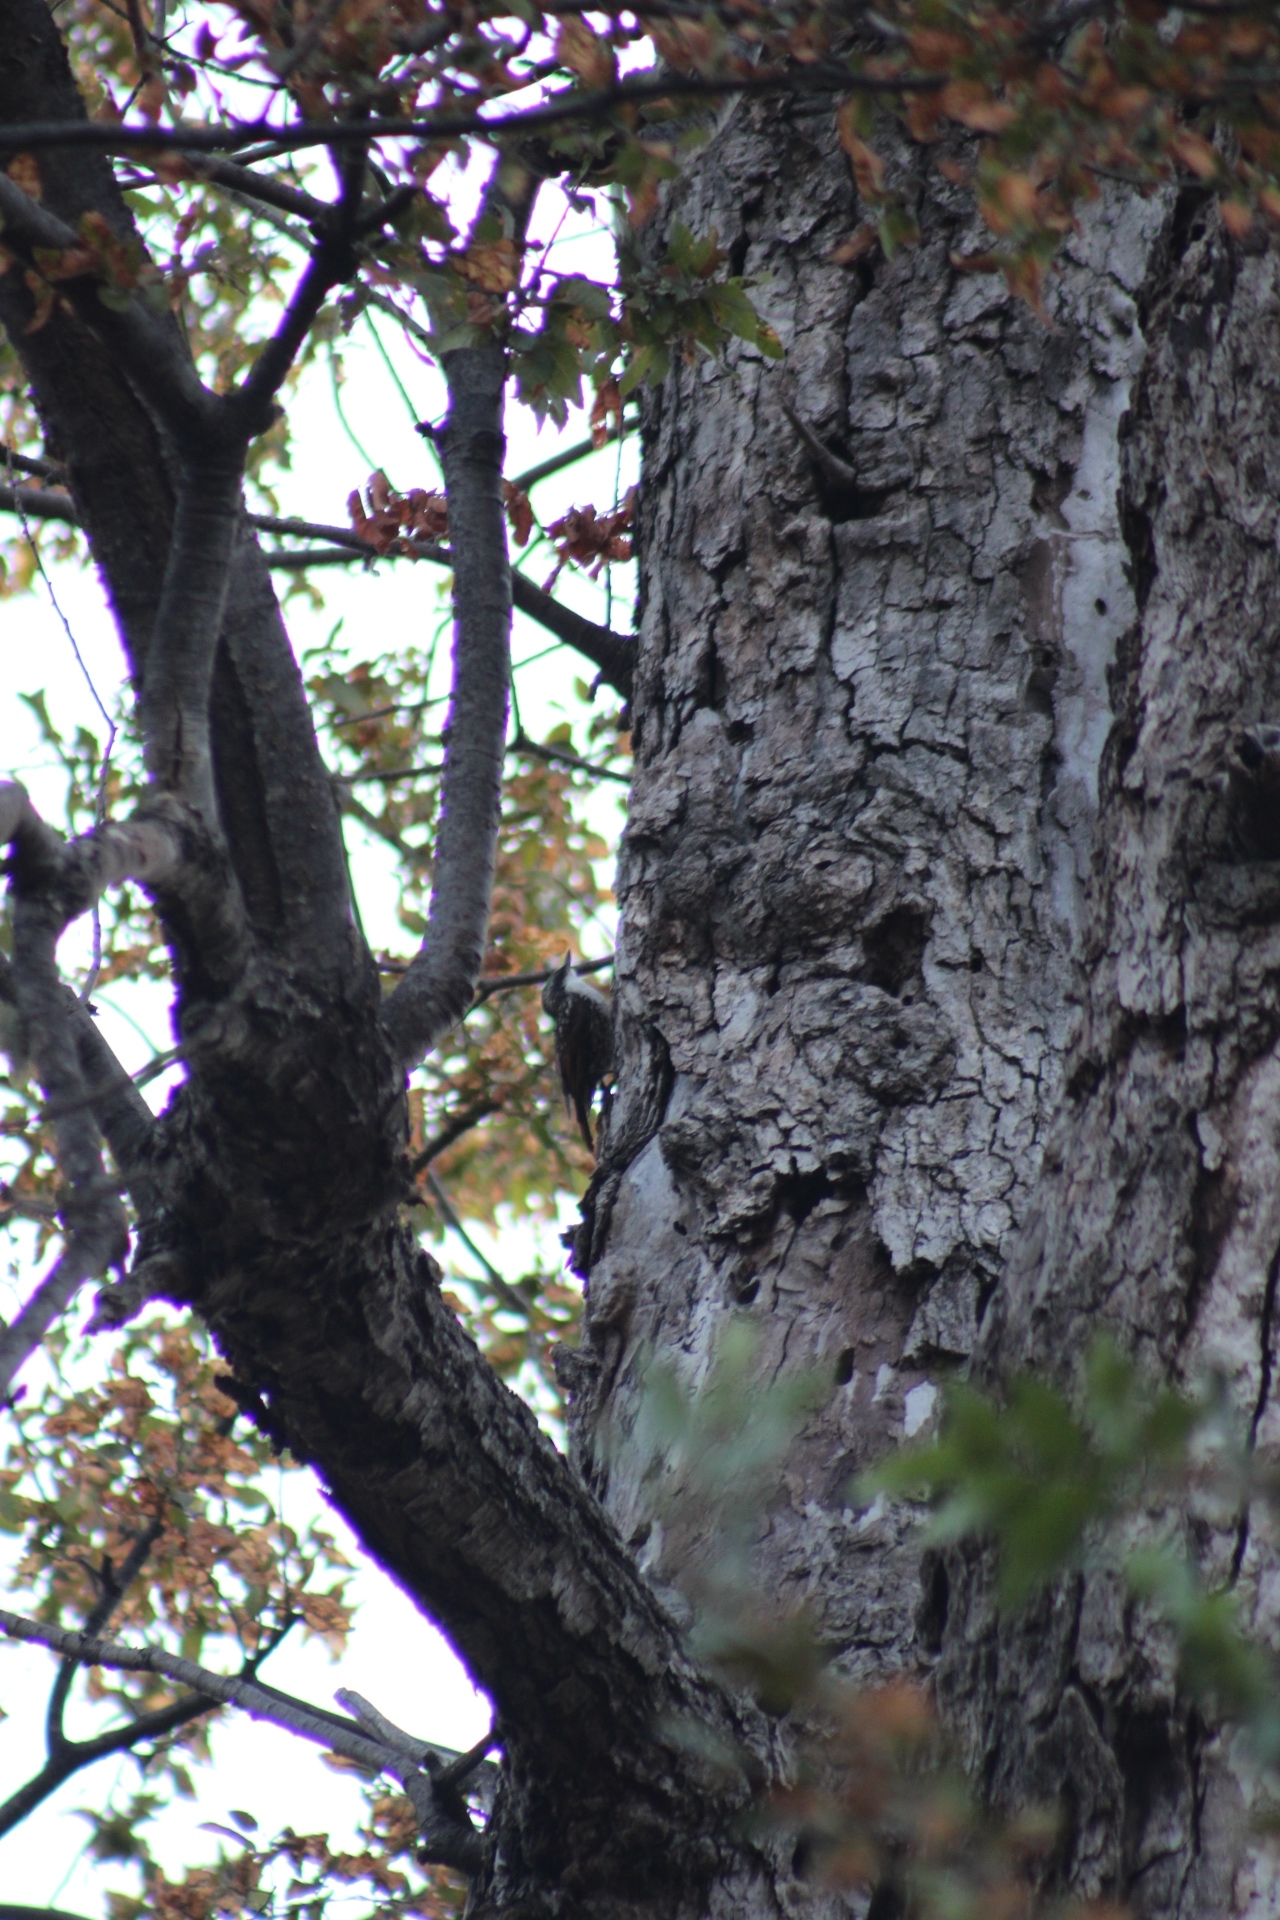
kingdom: Animalia
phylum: Chordata
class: Aves
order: Passeriformes
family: Furnariidae
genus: Pygarrhichas
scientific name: Pygarrhichas albogularis
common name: White-throated treerunner
